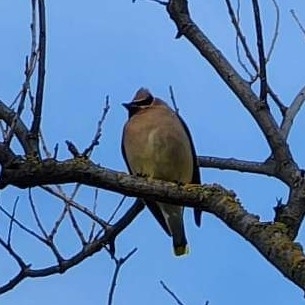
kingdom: Animalia
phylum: Chordata
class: Aves
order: Passeriformes
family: Bombycillidae
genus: Bombycilla
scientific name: Bombycilla cedrorum
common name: Cedar waxwing
